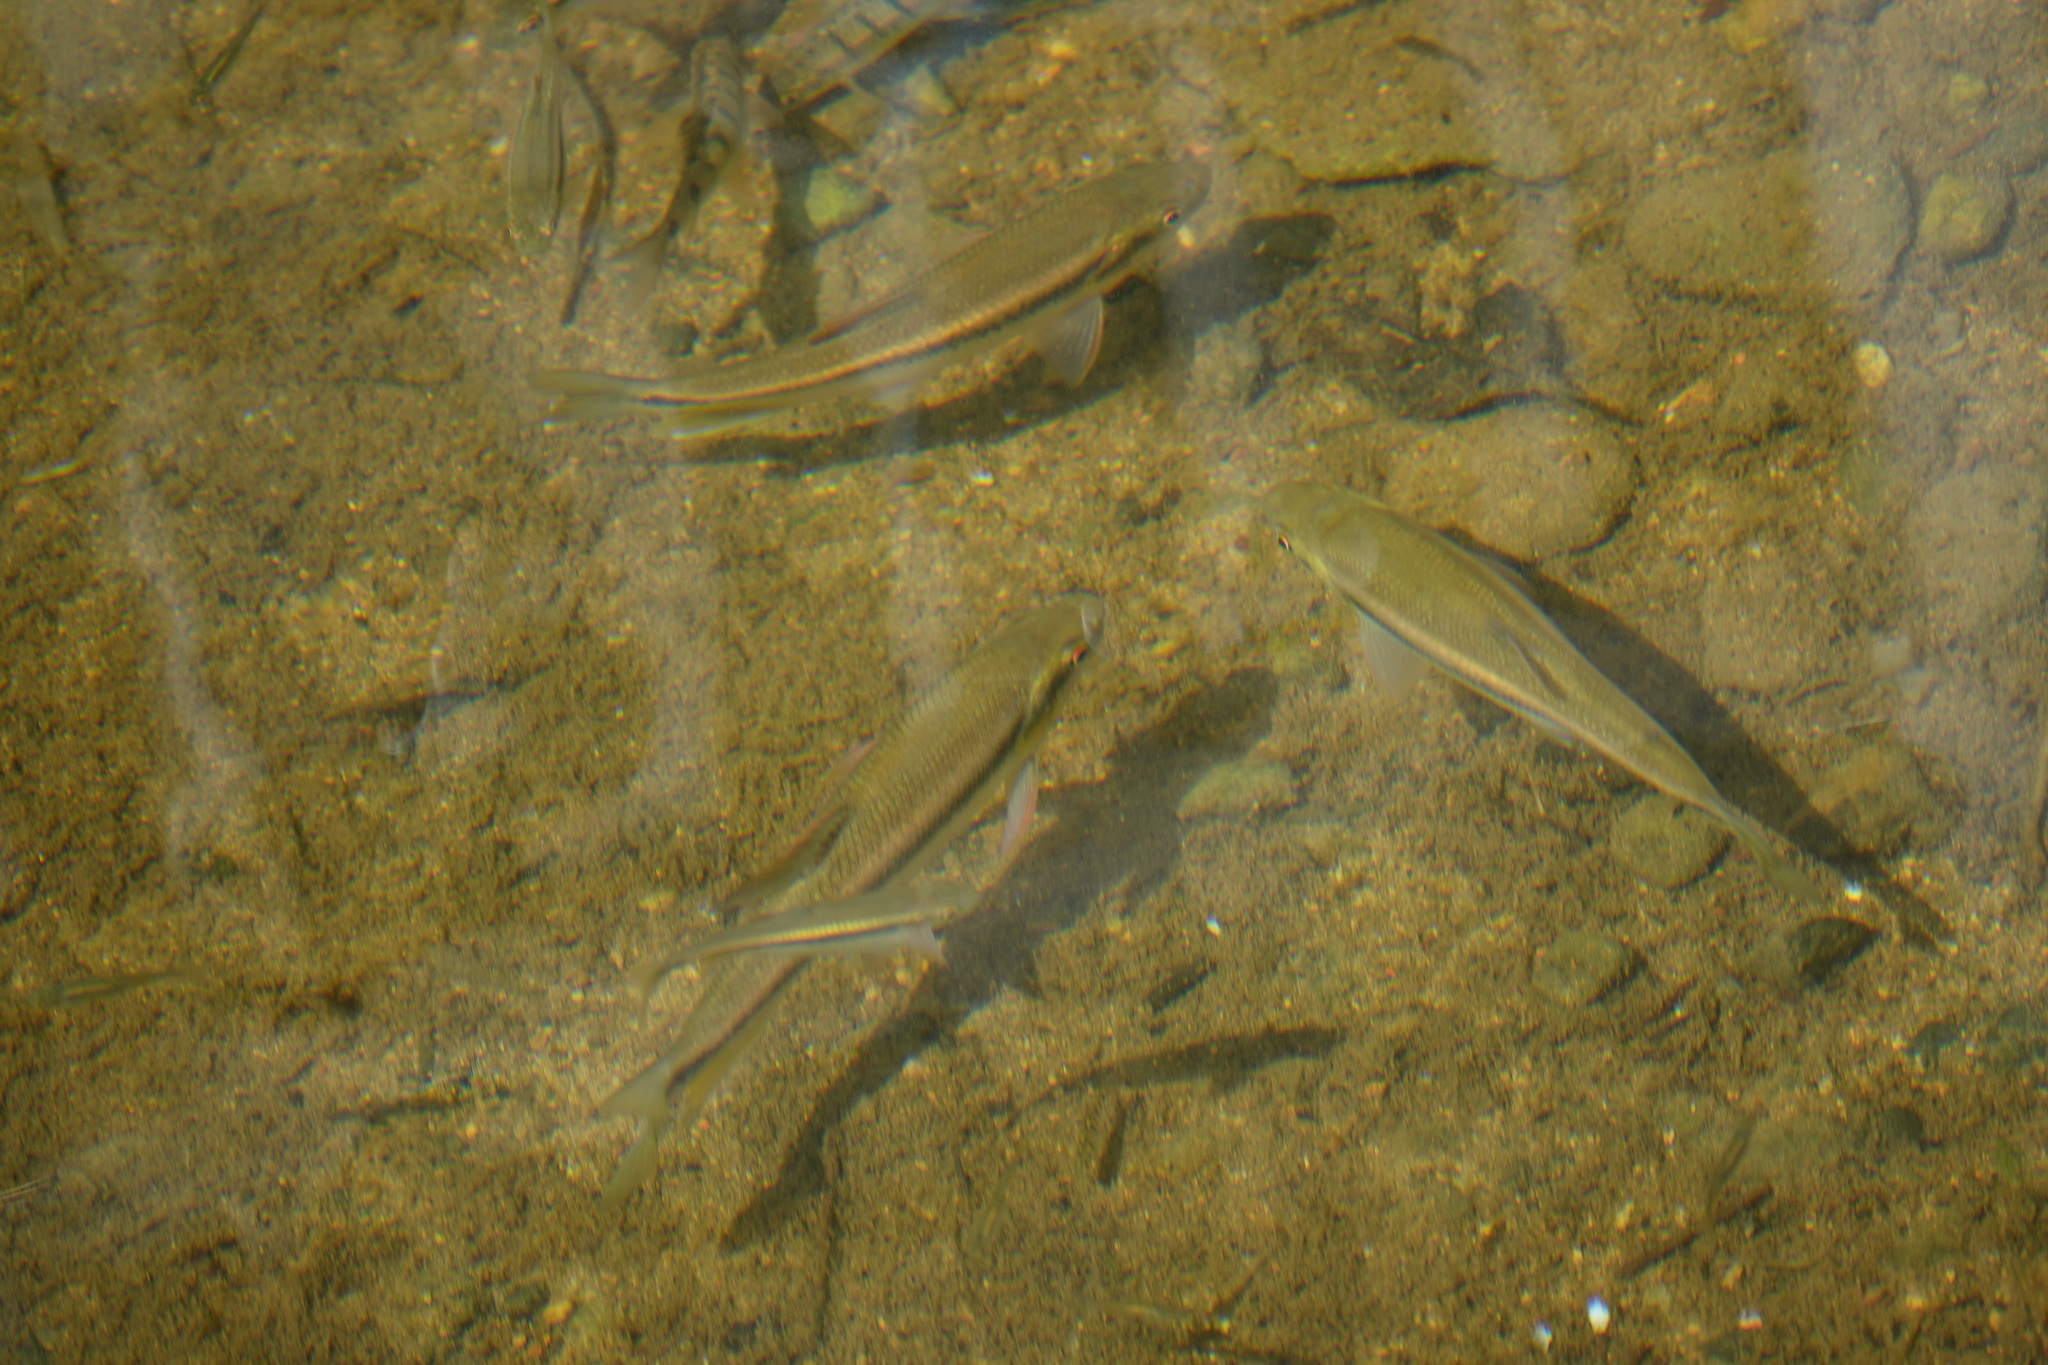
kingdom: Animalia
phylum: Chordata
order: Cypriniformes
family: Cyprinidae
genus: Candidia
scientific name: Candidia barbata
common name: Lake candidus dace
